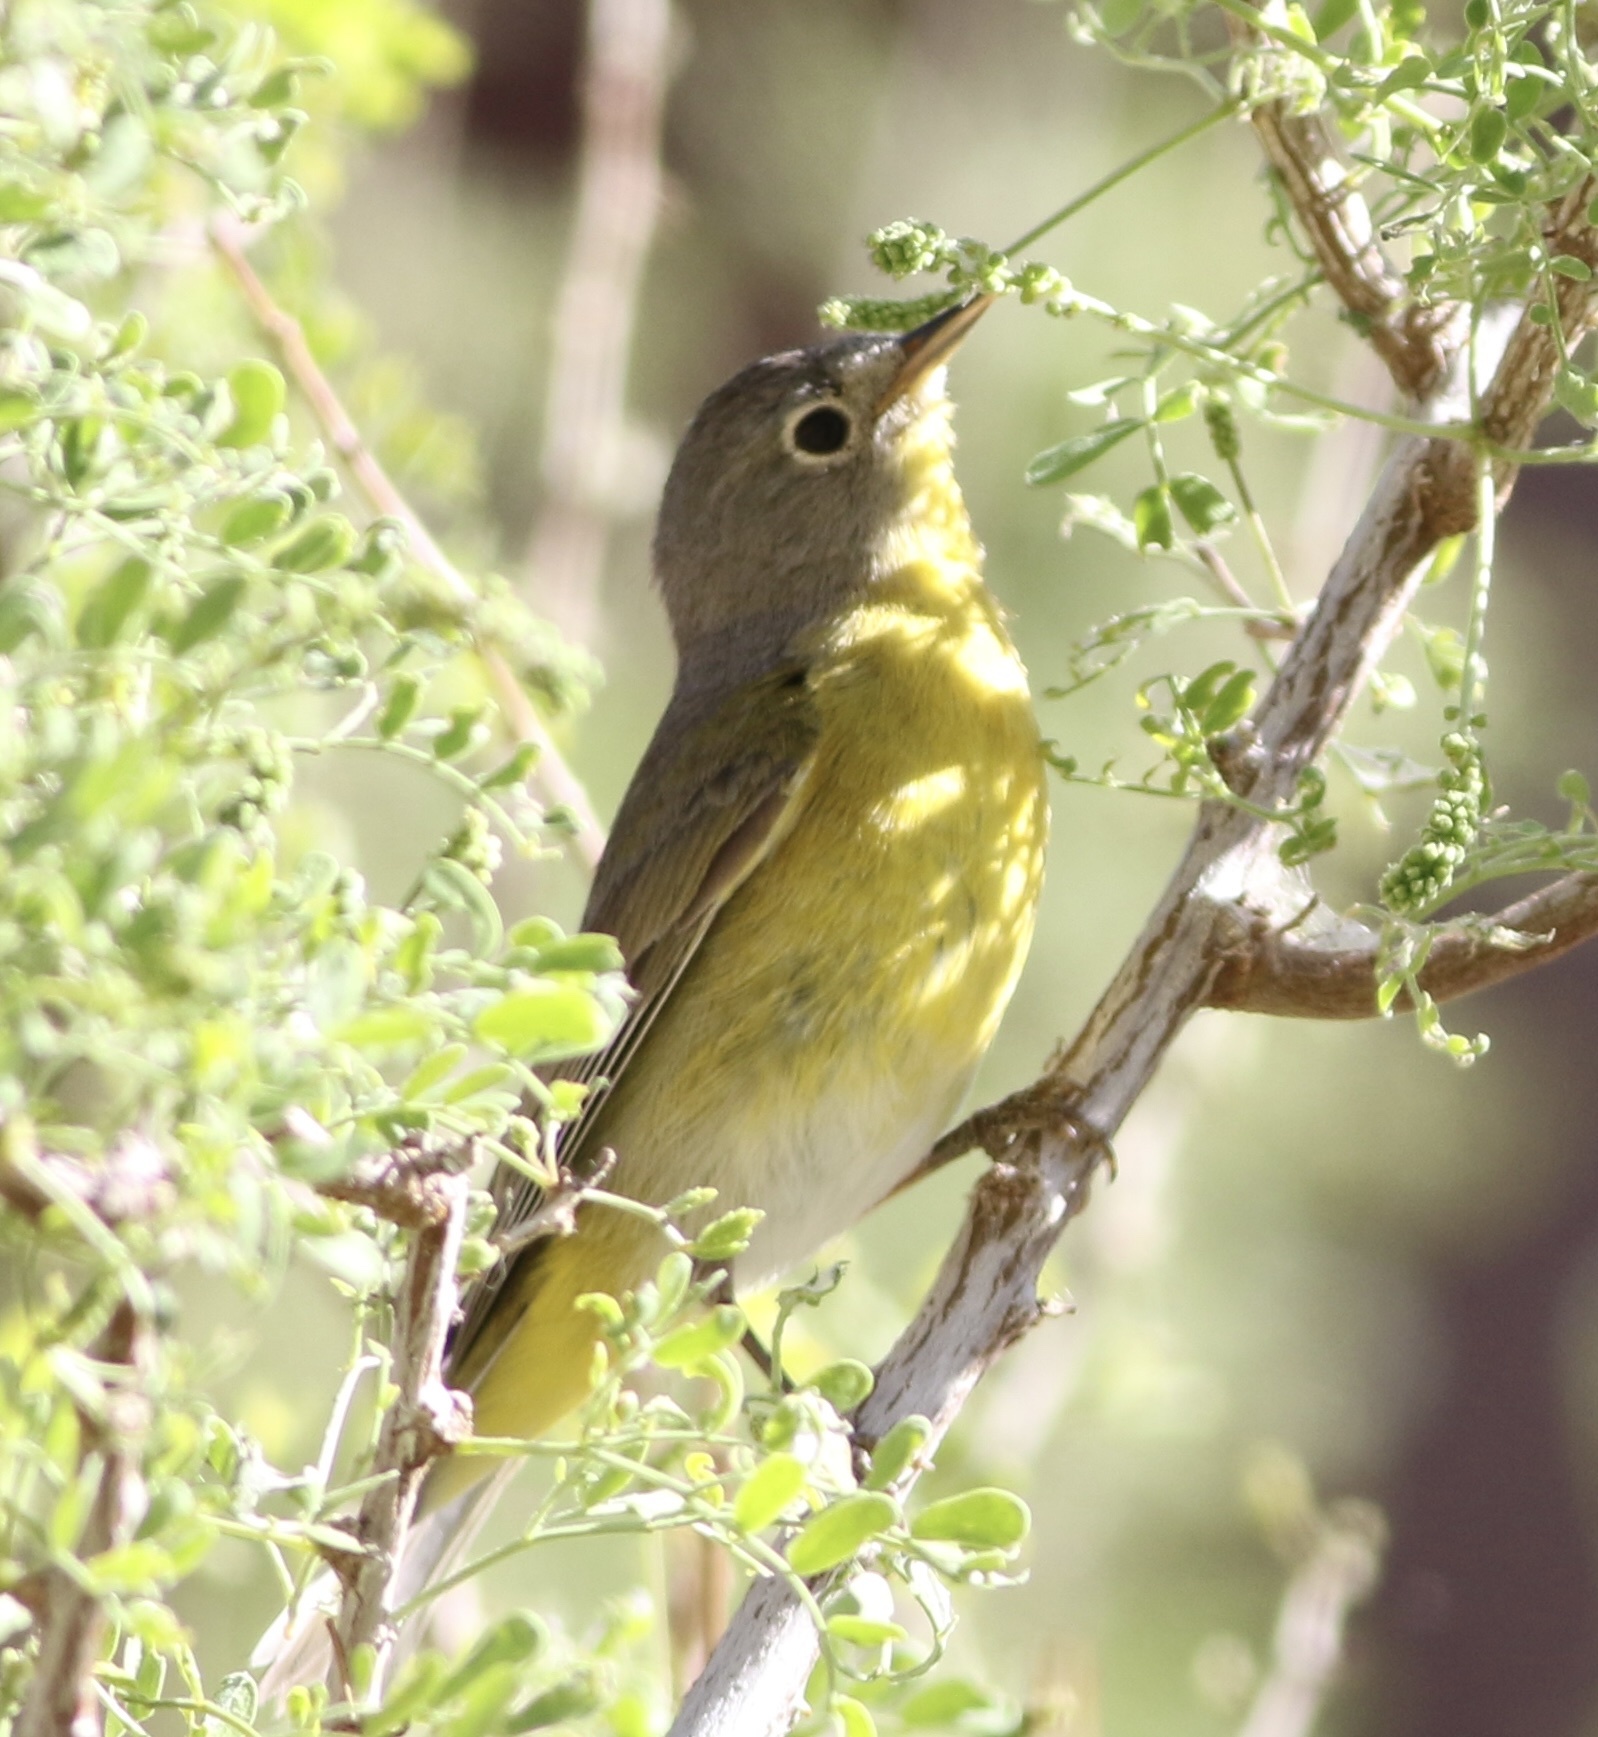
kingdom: Animalia
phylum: Chordata
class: Aves
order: Passeriformes
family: Parulidae
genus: Leiothlypis
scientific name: Leiothlypis ruficapilla
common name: Nashville warbler
